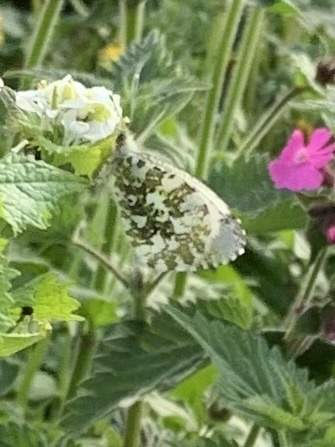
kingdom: Animalia
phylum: Arthropoda
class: Insecta
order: Lepidoptera
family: Pieridae
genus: Anthocharis
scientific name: Anthocharis cardamines
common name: Orange-tip
